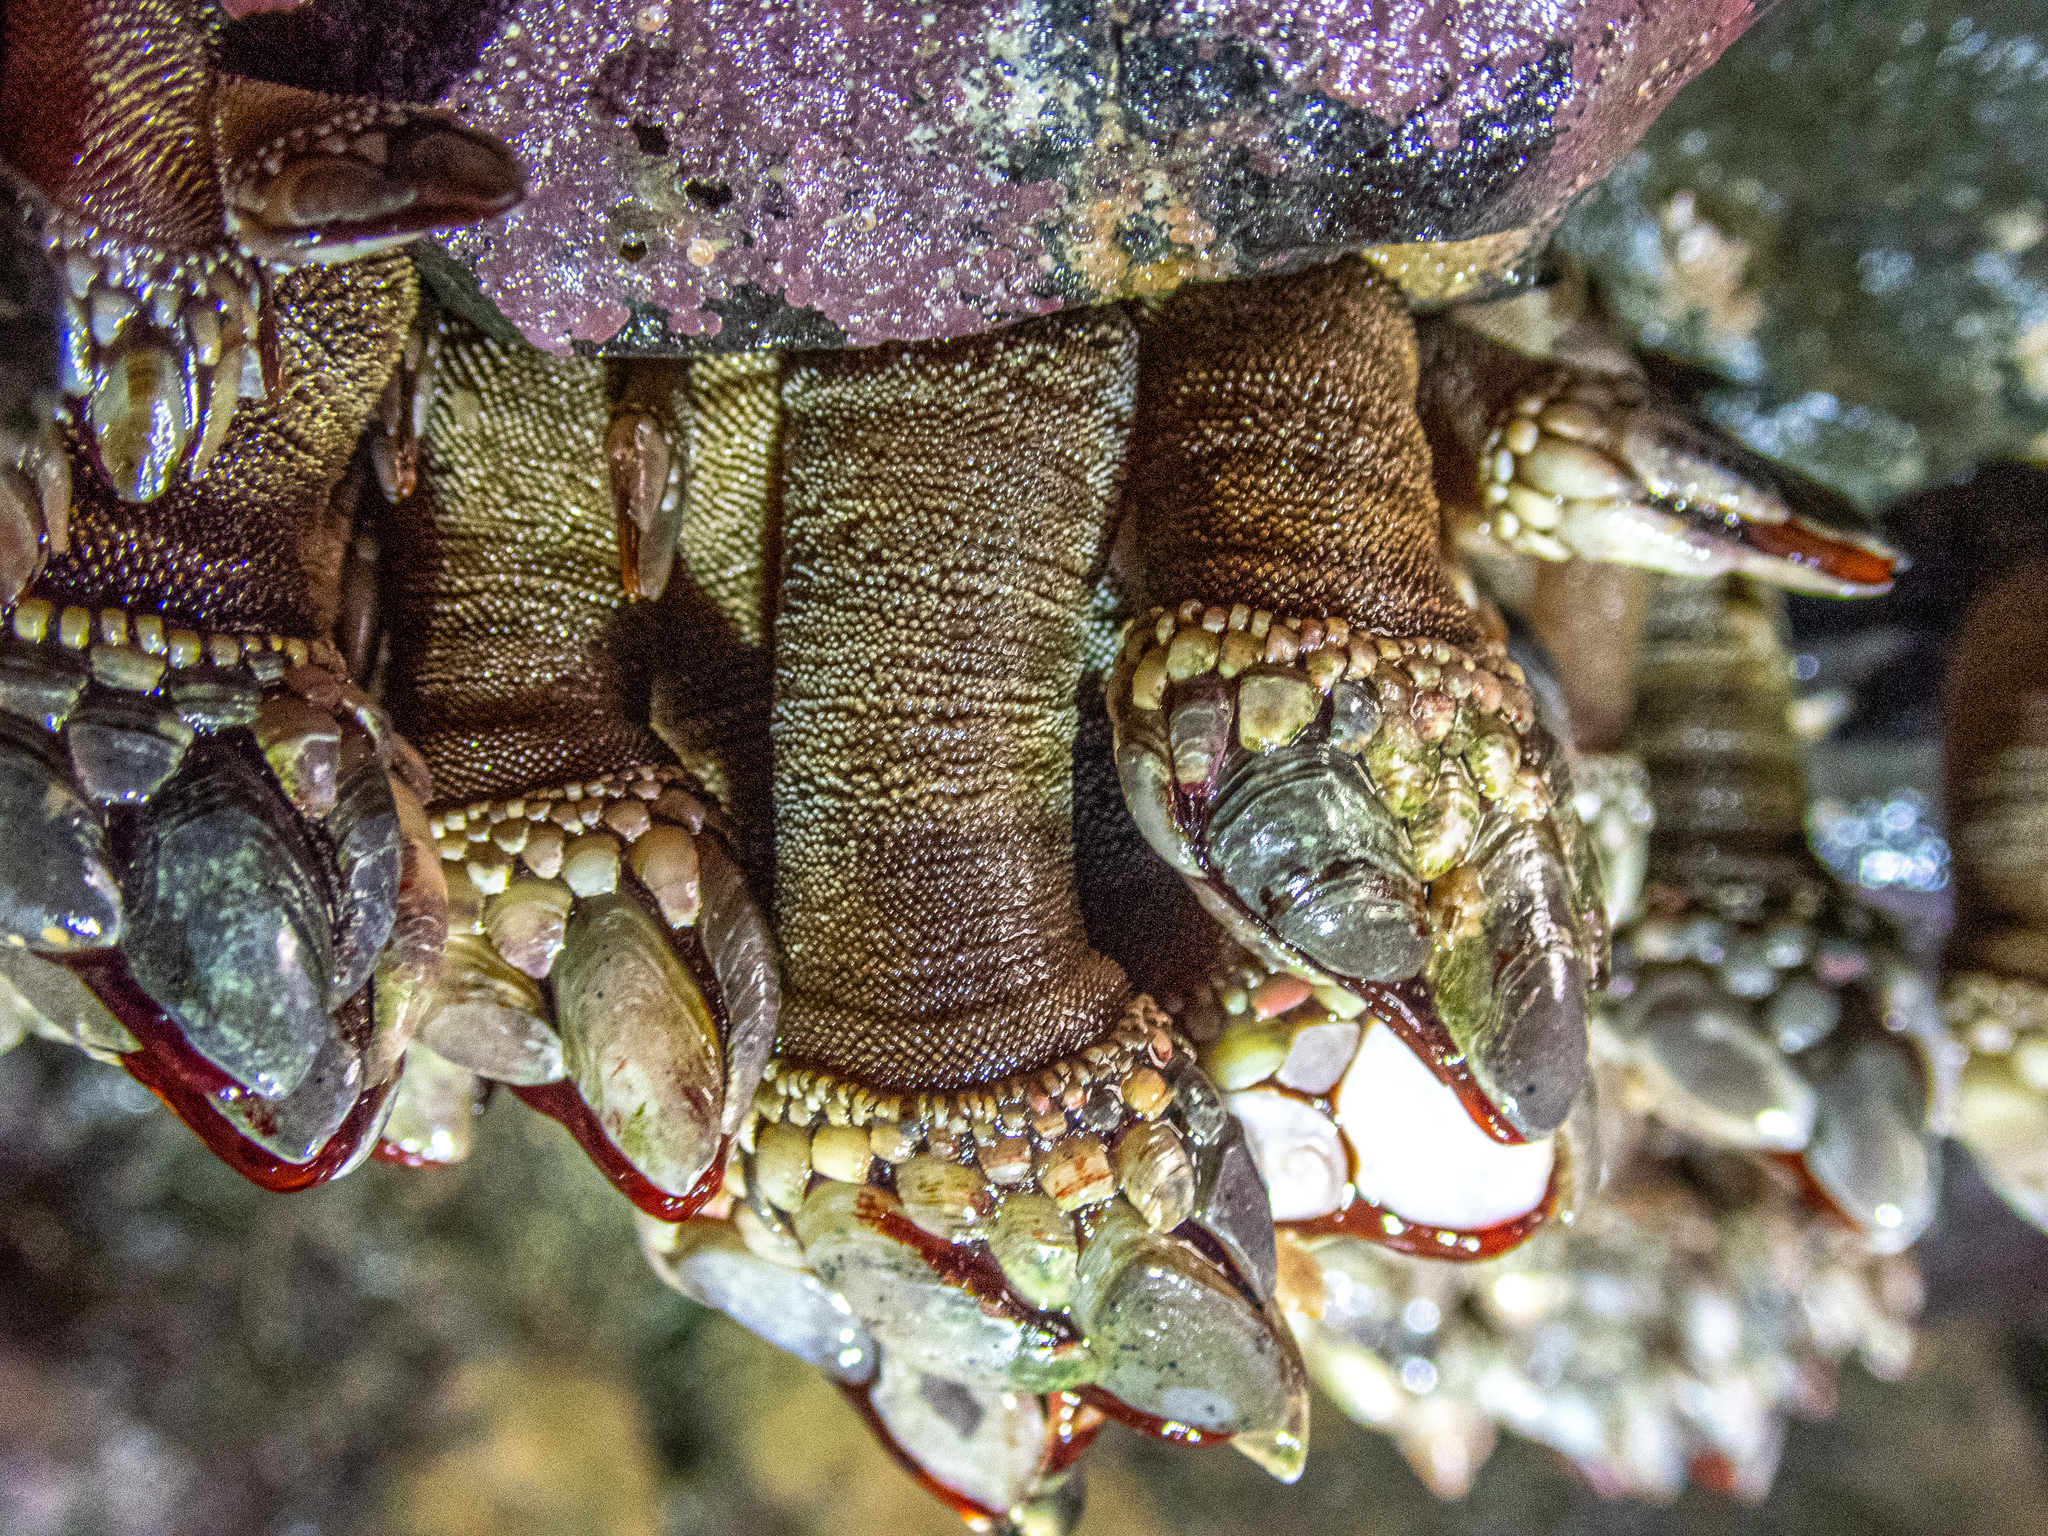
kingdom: Animalia
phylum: Arthropoda
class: Maxillopoda
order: Pedunculata
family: Pollicipedidae
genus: Pollicipes
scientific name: Pollicipes polymerus
